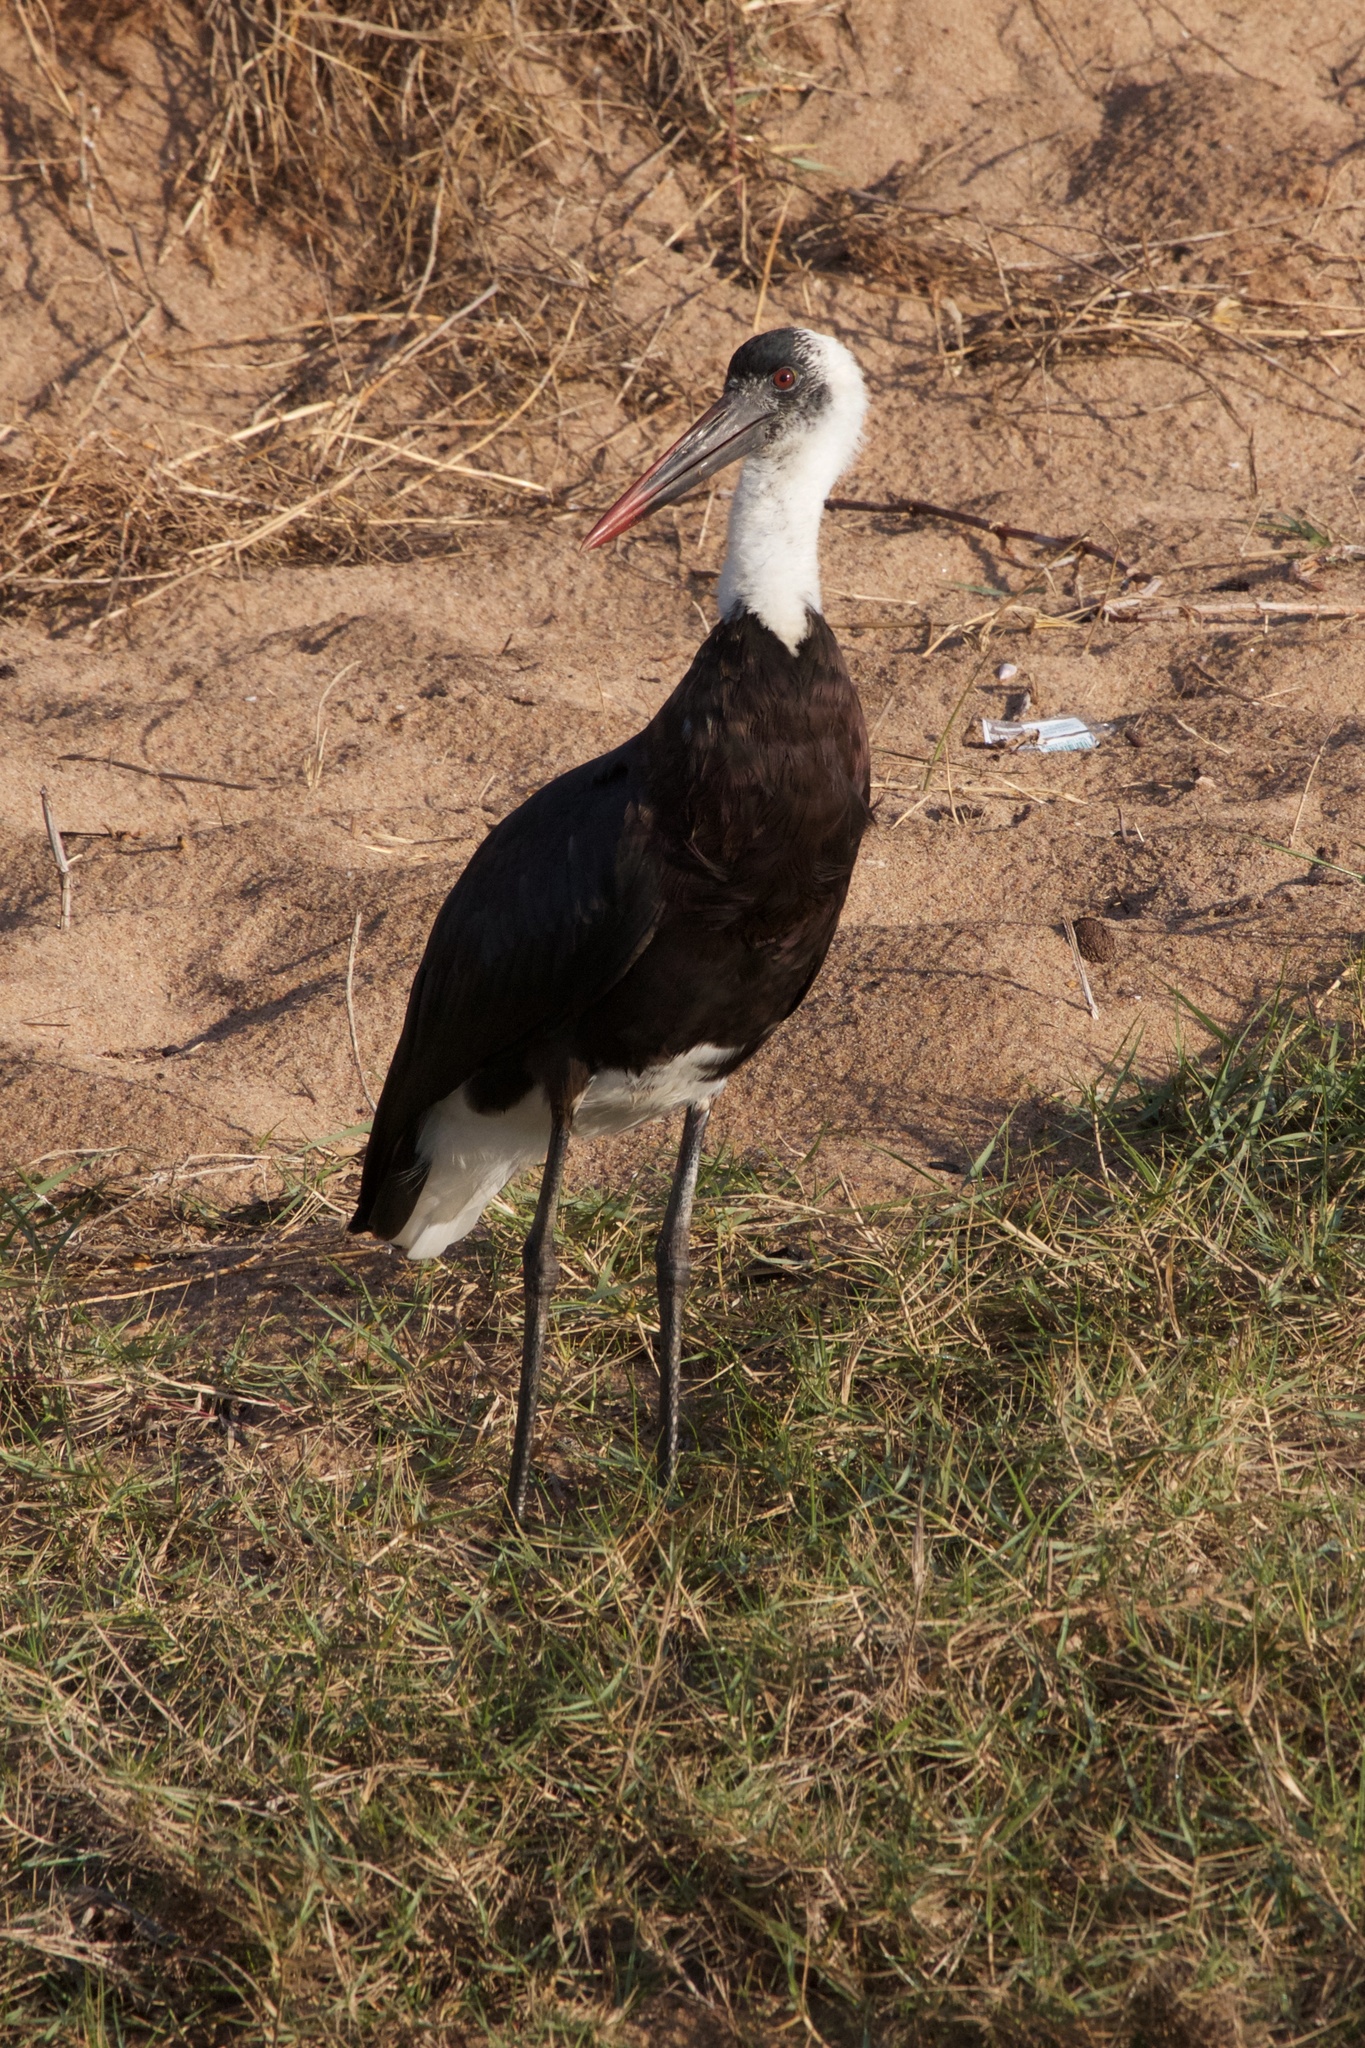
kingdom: Animalia
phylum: Chordata
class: Aves
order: Ciconiiformes
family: Ciconiidae
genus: Ciconia
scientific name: Ciconia microscelis
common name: African woollyneck
